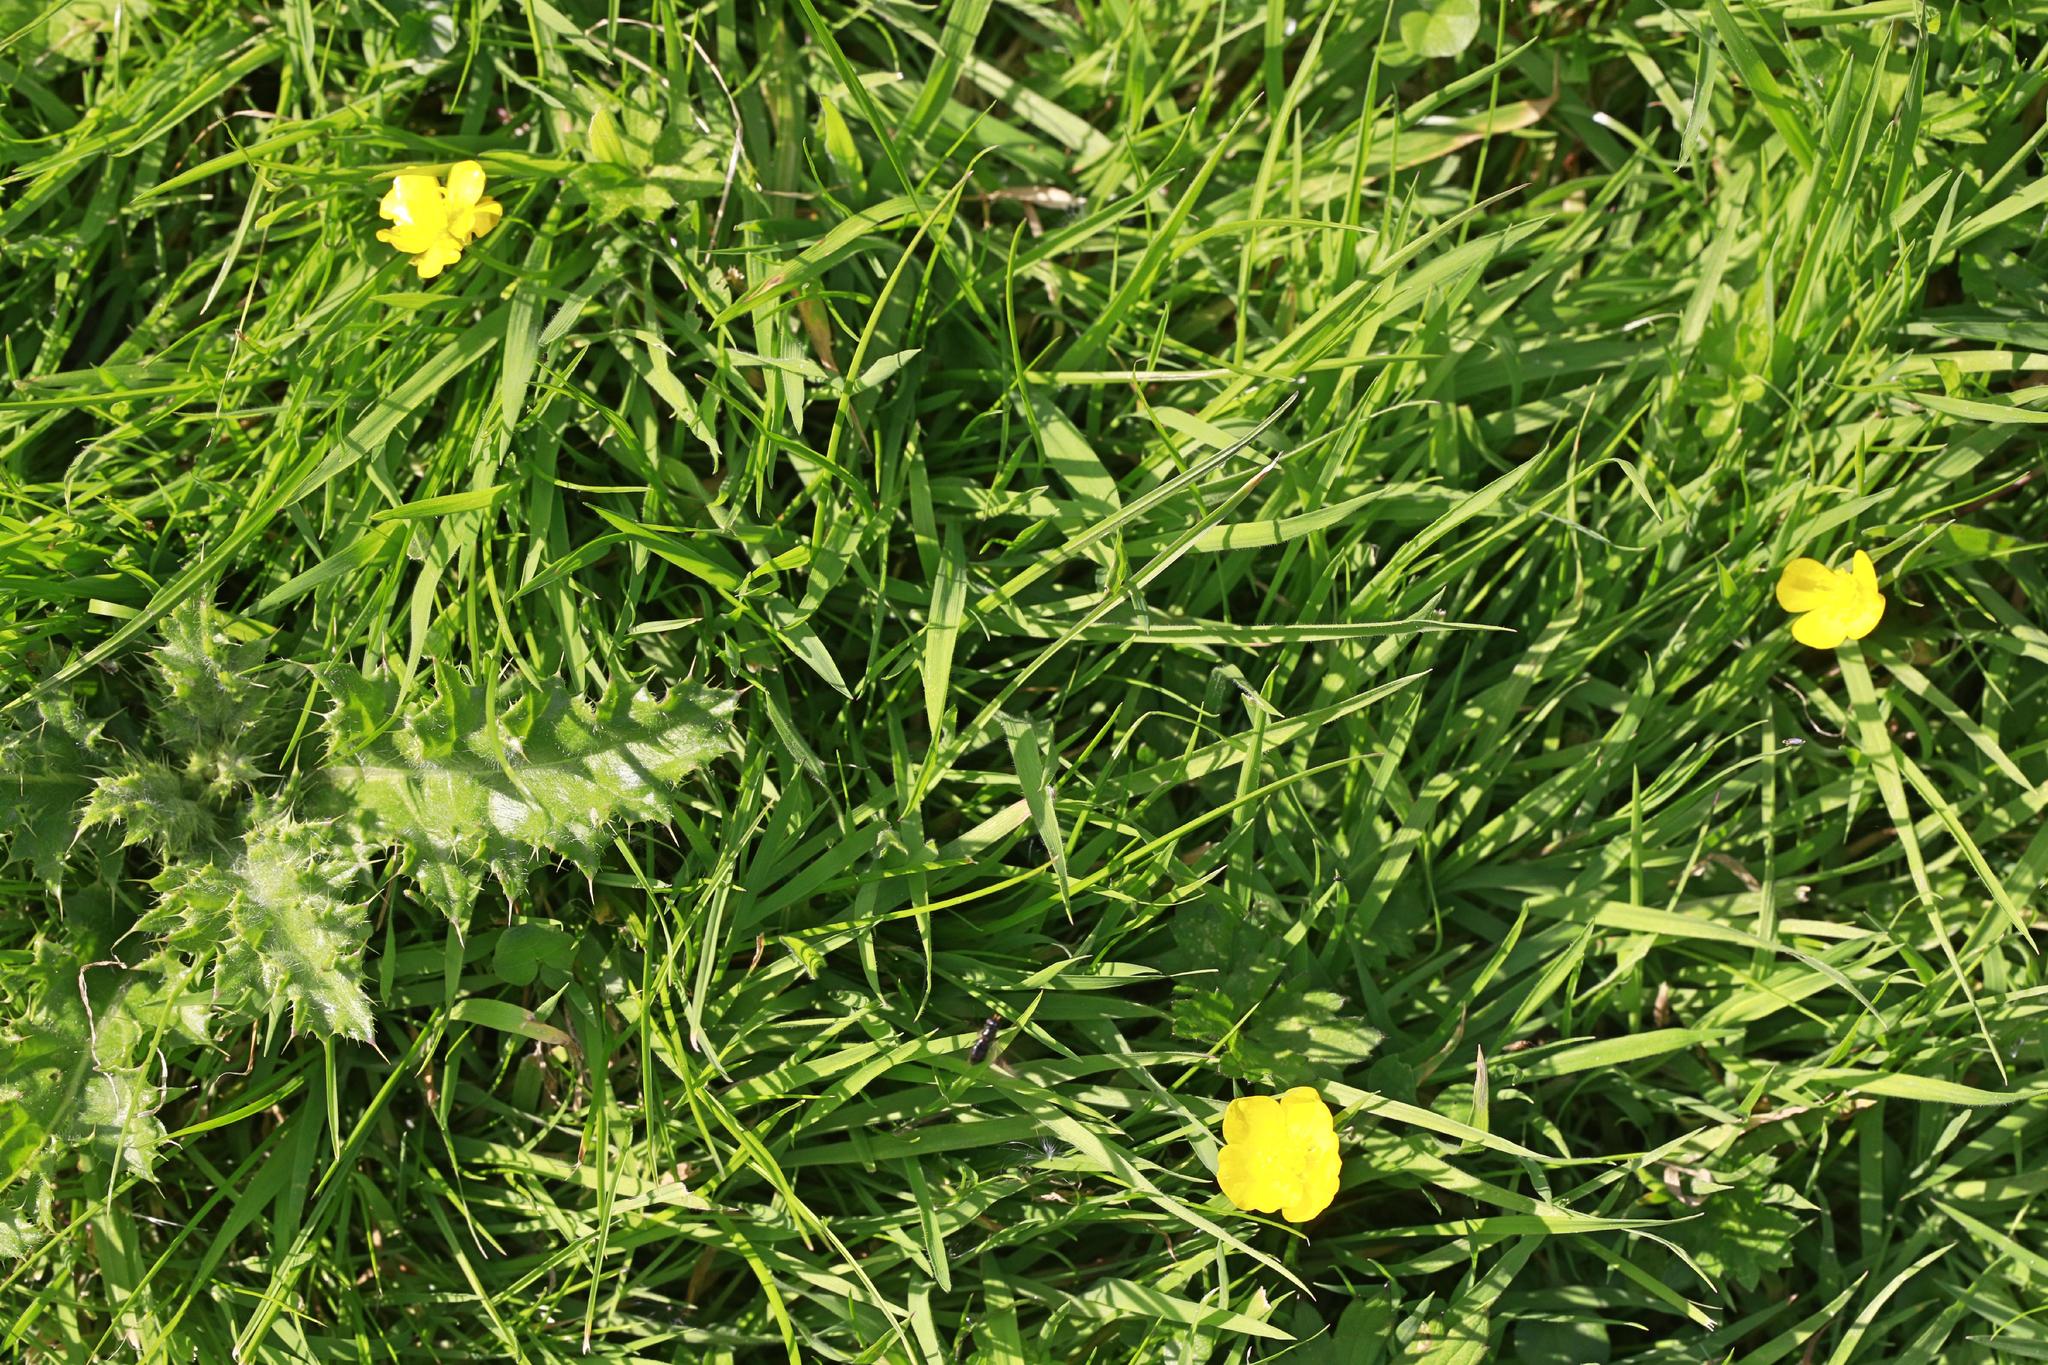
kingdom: Plantae
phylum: Tracheophyta
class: Magnoliopsida
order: Ranunculales
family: Ranunculaceae
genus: Ranunculus
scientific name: Ranunculus repens
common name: Creeping buttercup
